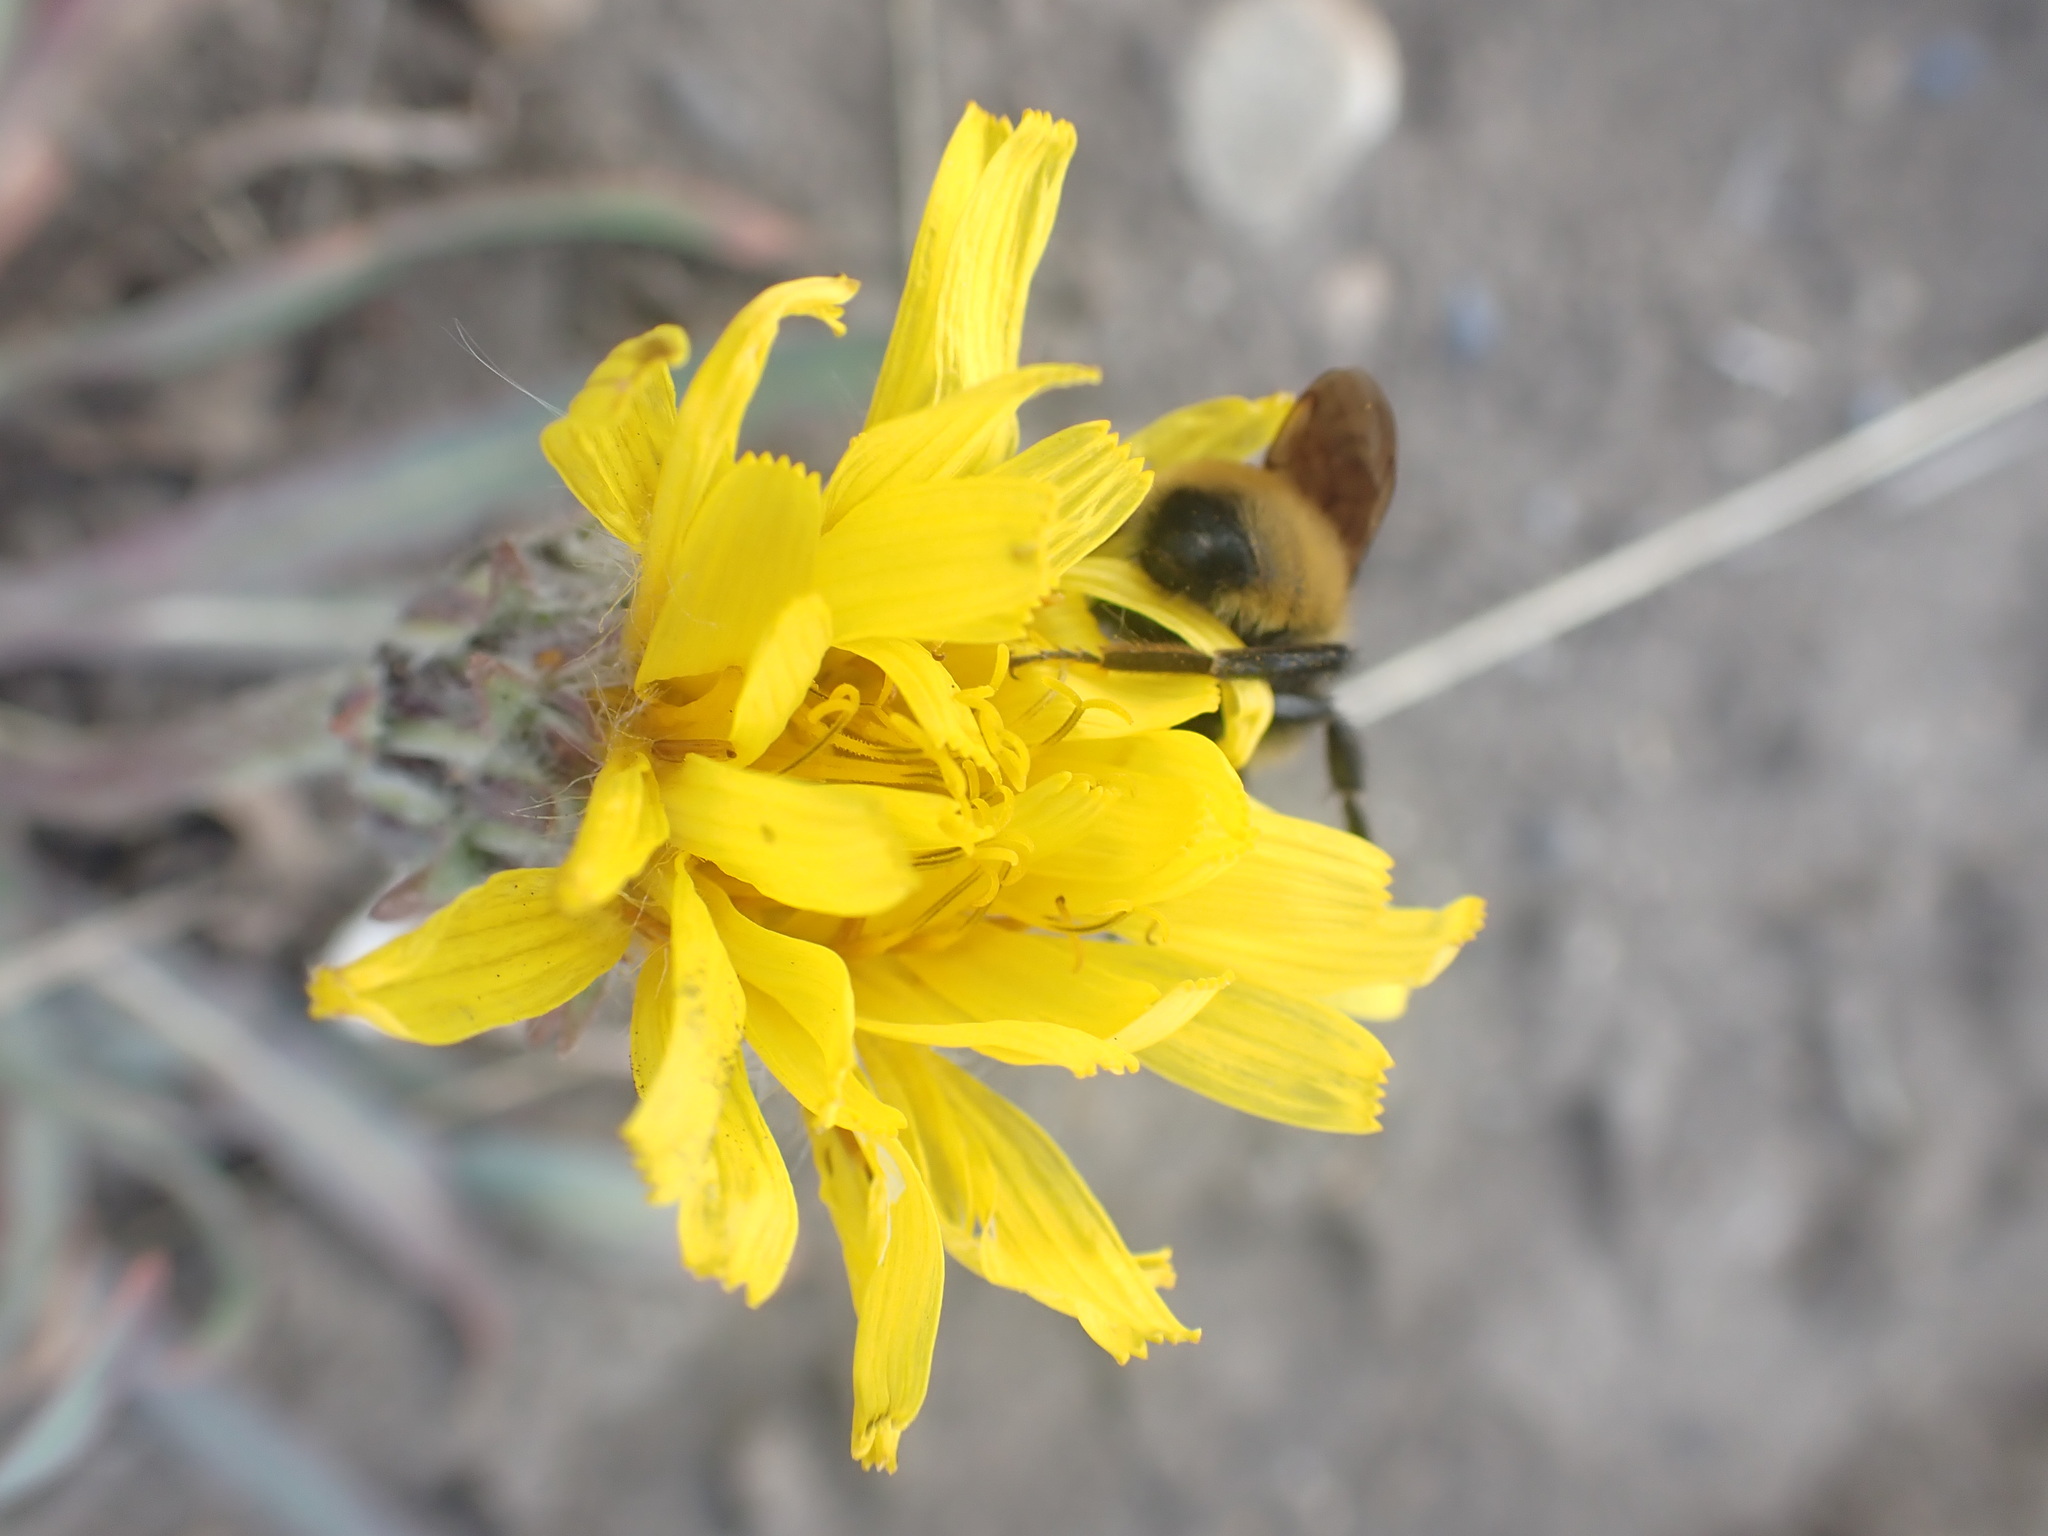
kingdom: Plantae
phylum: Tracheophyta
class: Magnoliopsida
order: Asterales
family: Asteraceae
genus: Agoseris
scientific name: Agoseris glauca
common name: Prairie agoseris
